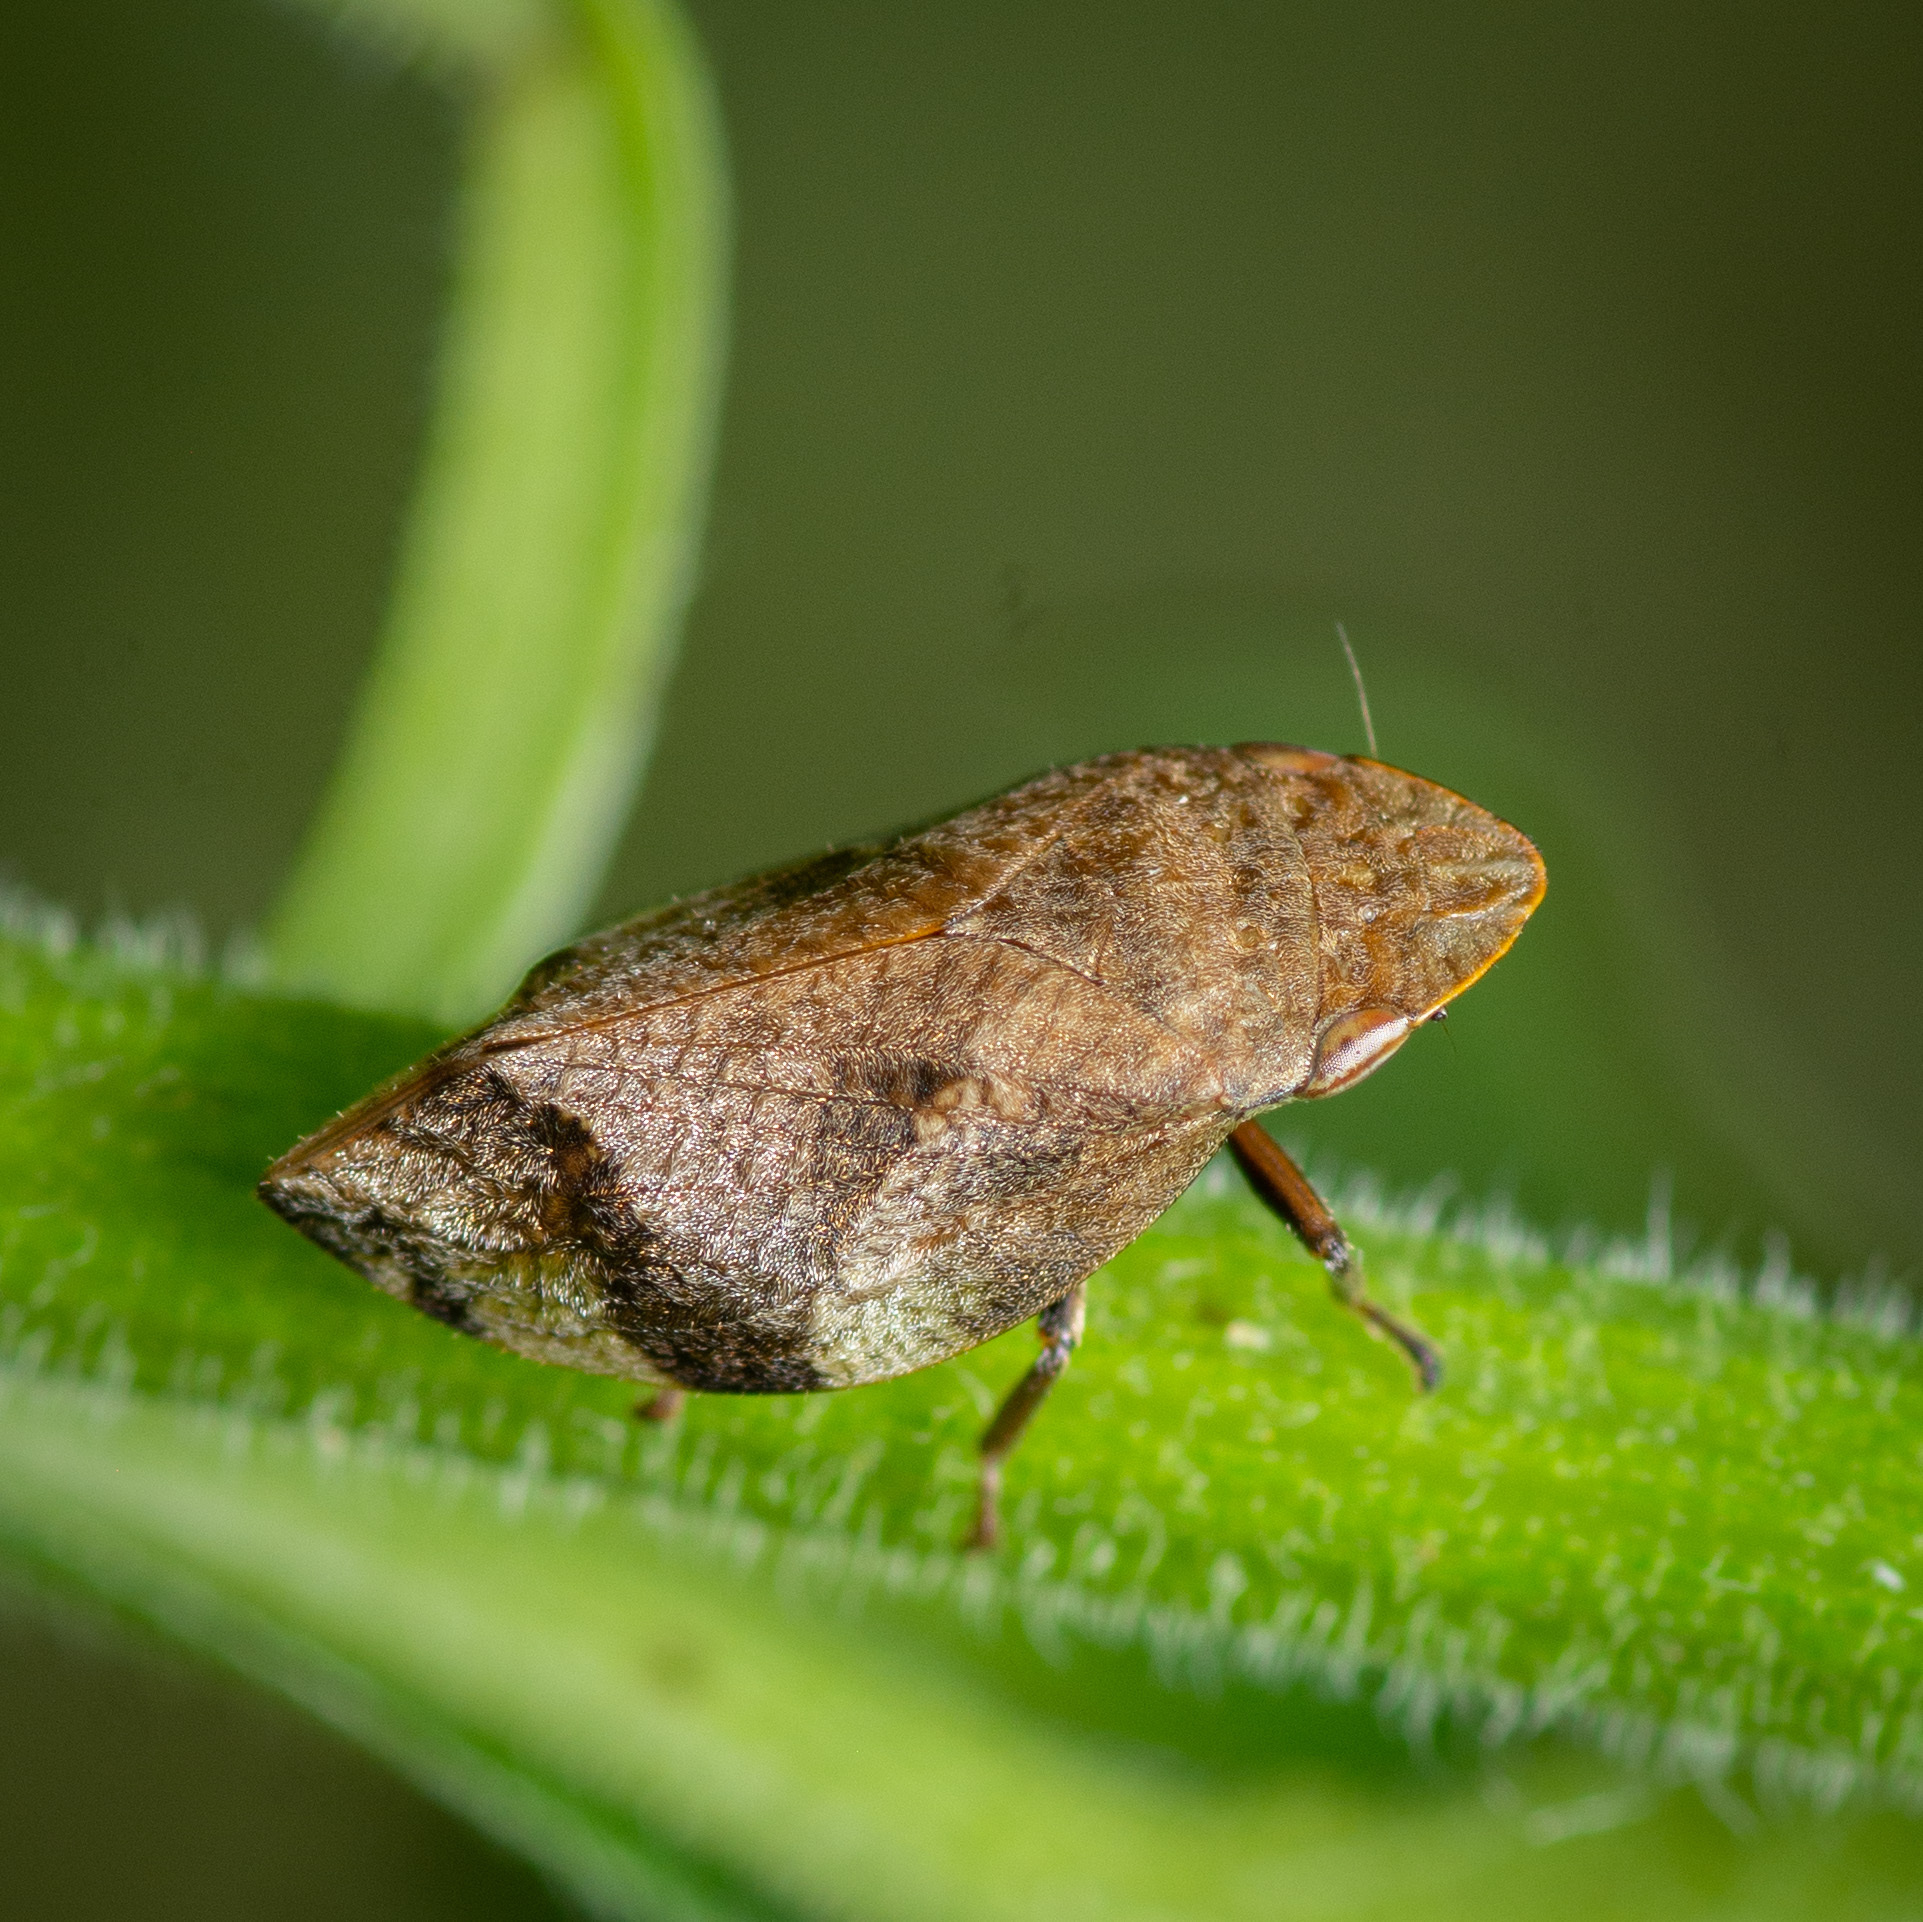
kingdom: Animalia
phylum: Arthropoda
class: Insecta
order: Hemiptera
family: Aphrophoridae
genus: Lepyronia
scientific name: Lepyronia quadrangularis
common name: Diamond-backed spittlebug
